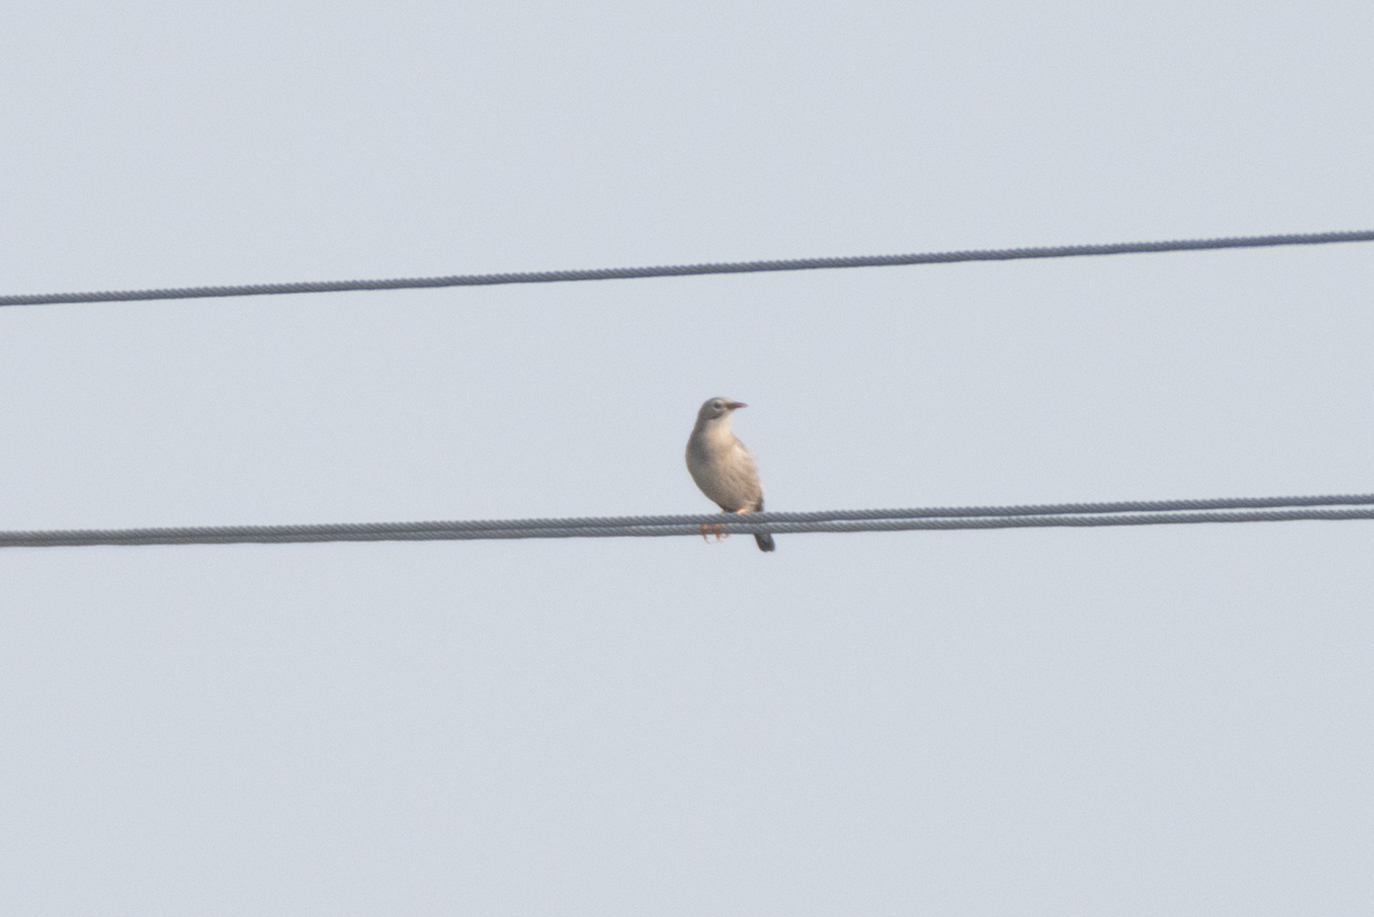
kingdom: Animalia
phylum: Chordata
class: Aves
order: Passeriformes
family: Sturnidae
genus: Spodiopsar
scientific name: Spodiopsar sericeus
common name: Red-billed starling
